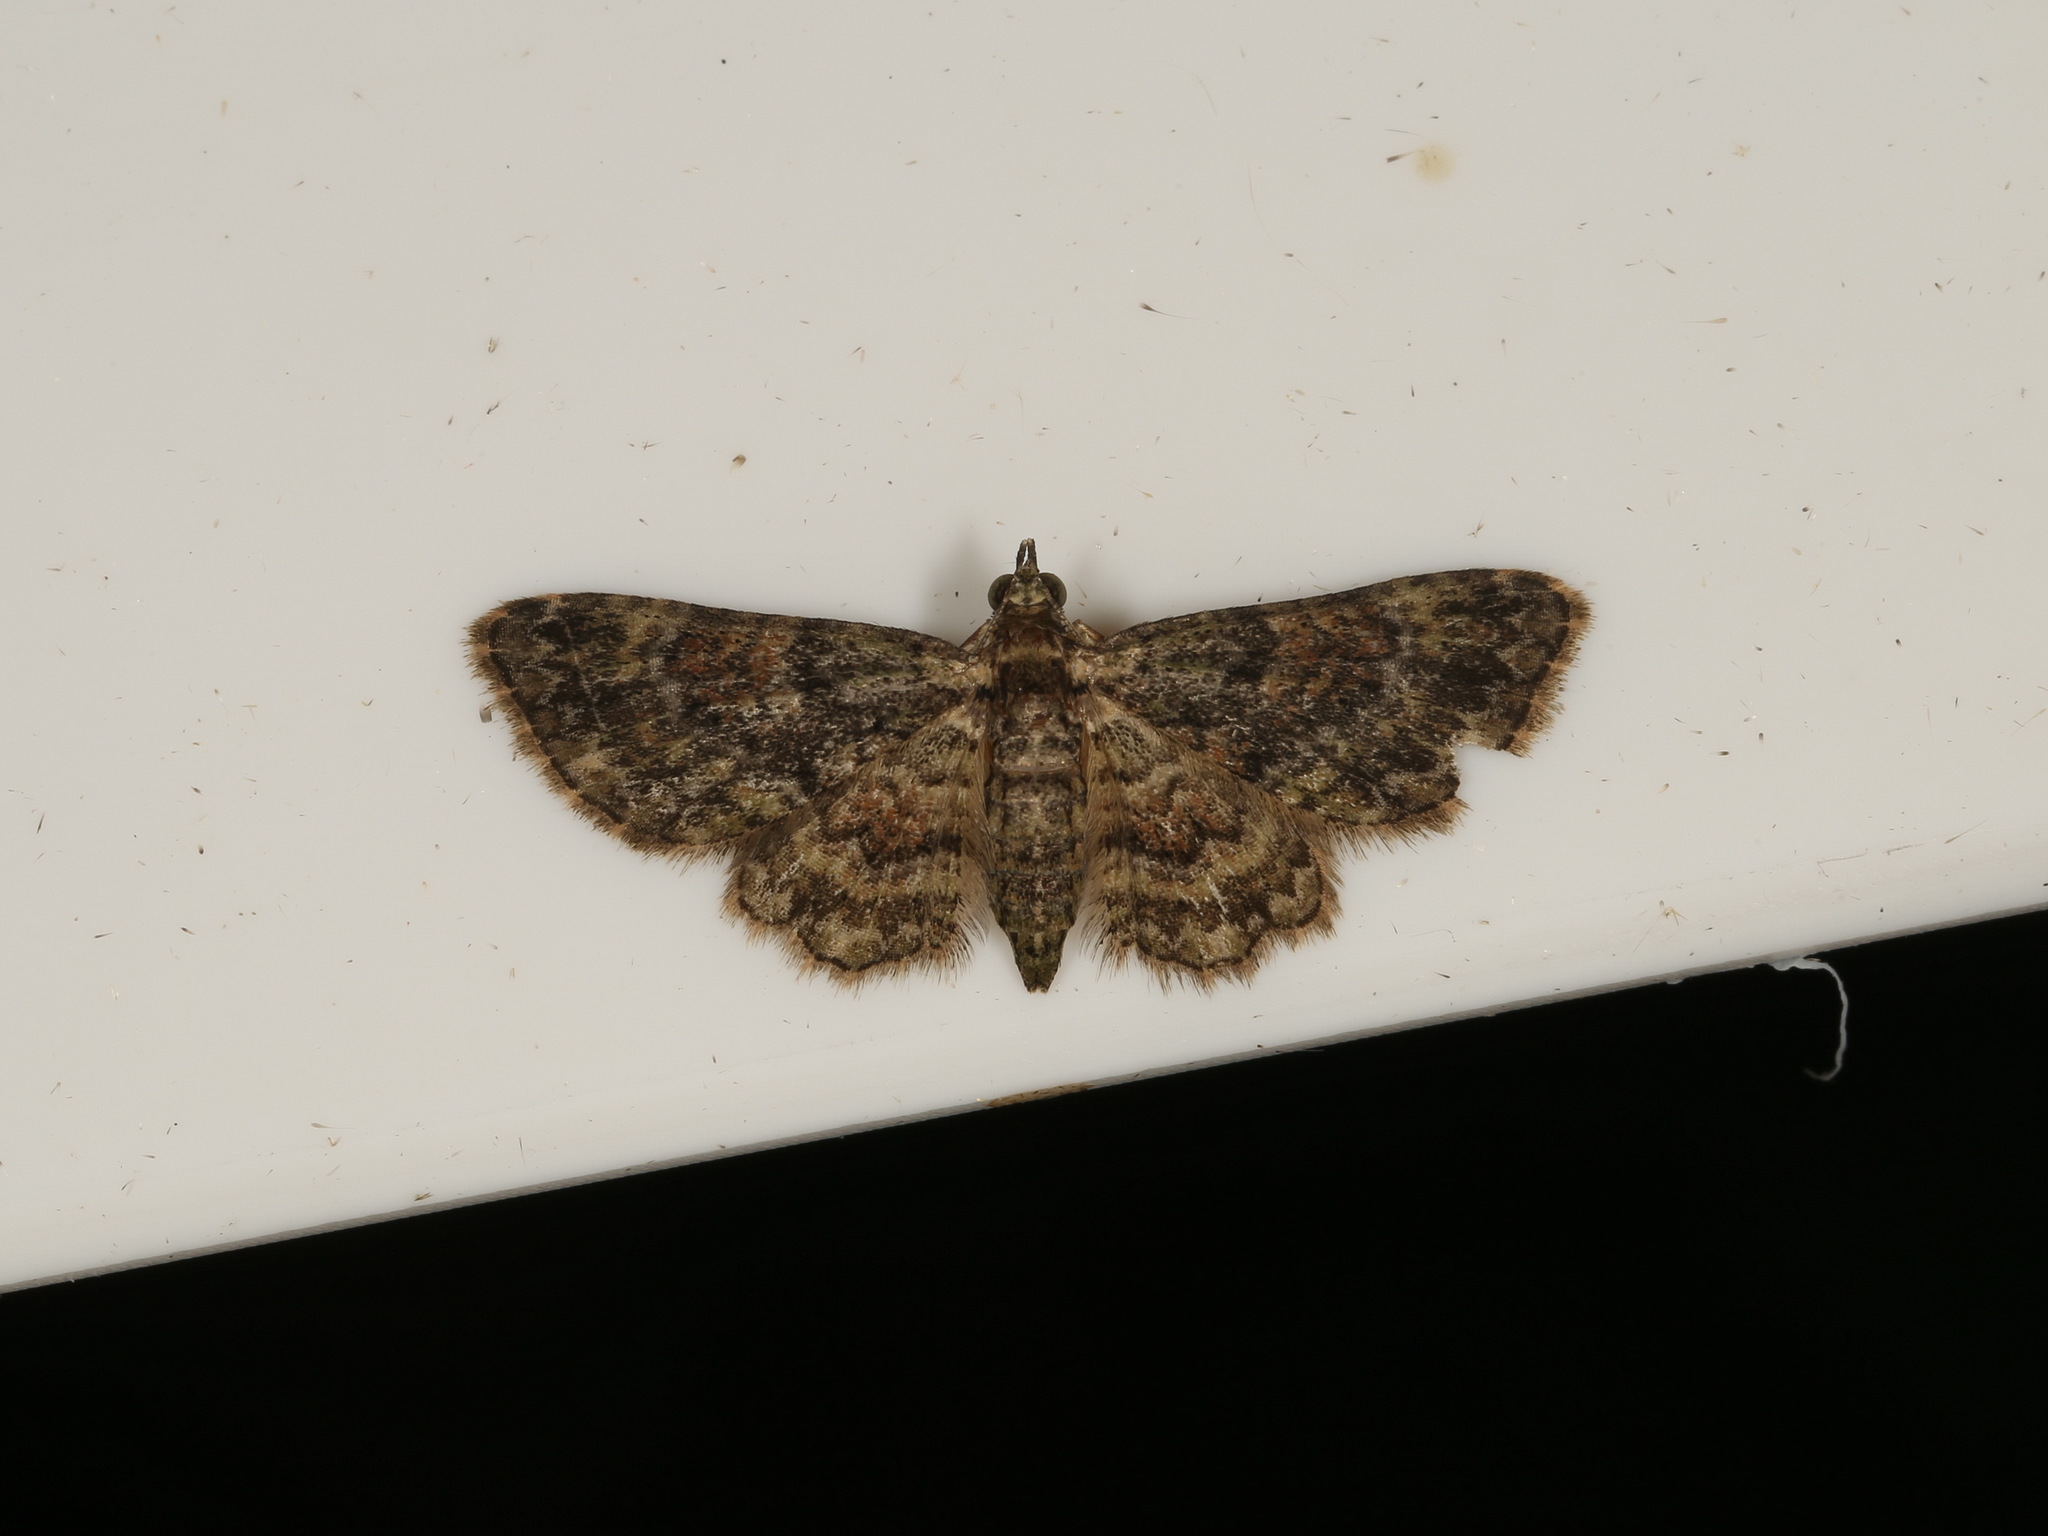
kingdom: Animalia
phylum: Arthropoda
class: Insecta
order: Lepidoptera
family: Geometridae
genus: Chloroclystis
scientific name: Chloroclystis catastreptes
